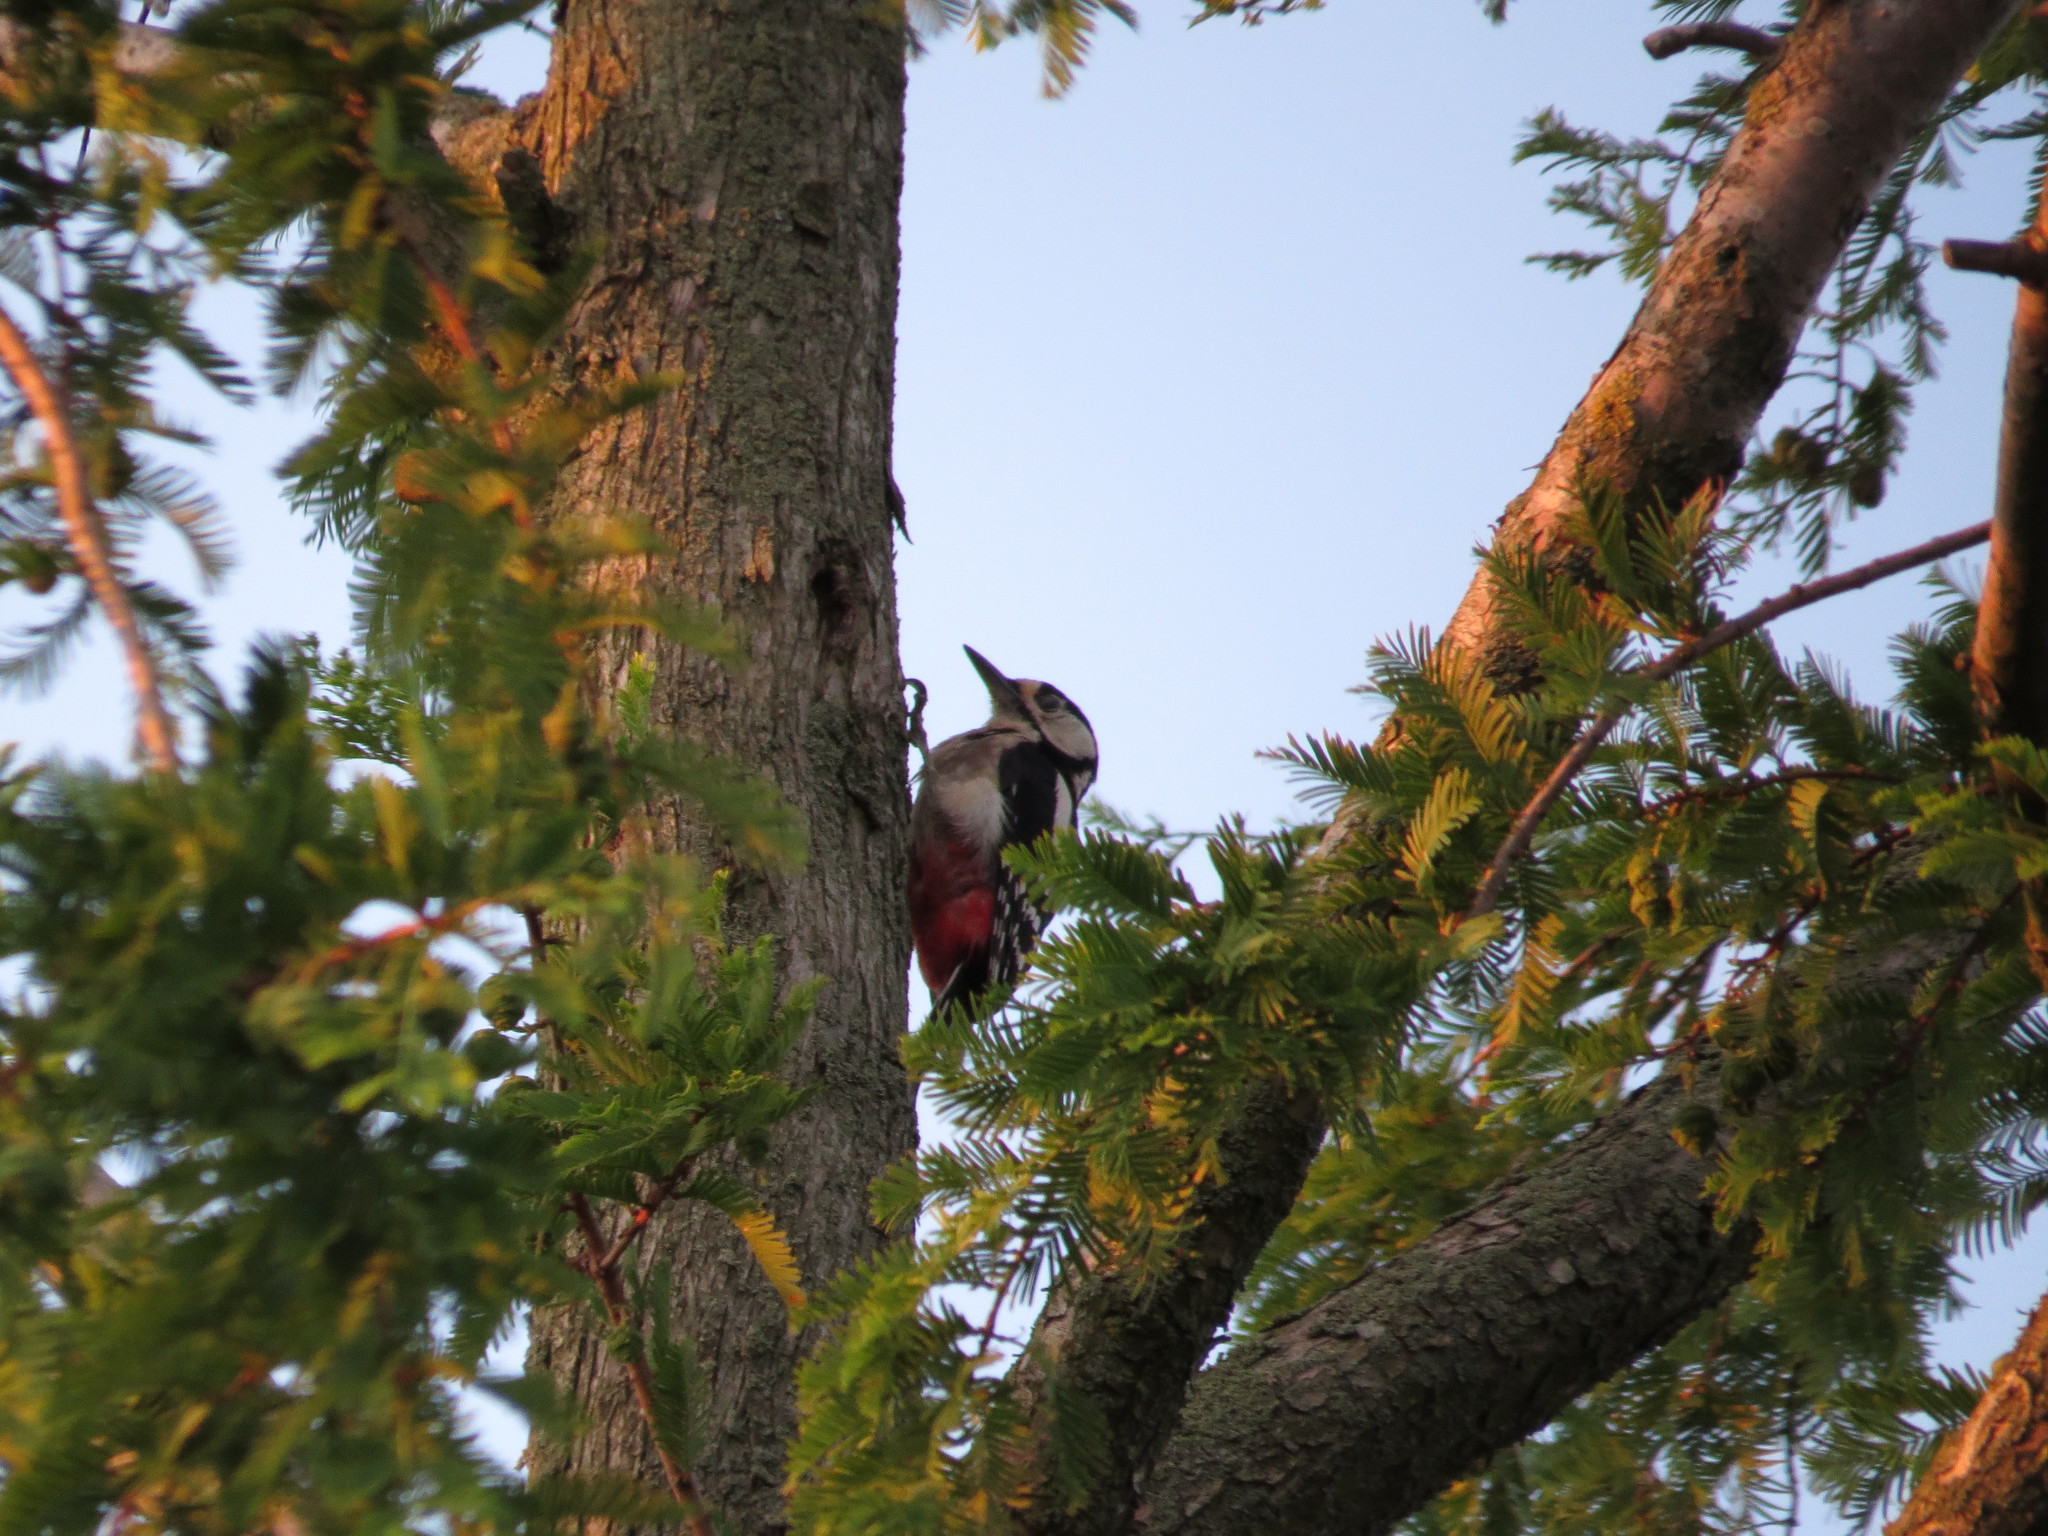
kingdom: Animalia
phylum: Chordata
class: Aves
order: Piciformes
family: Picidae
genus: Dendrocopos
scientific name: Dendrocopos major
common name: Great spotted woodpecker
